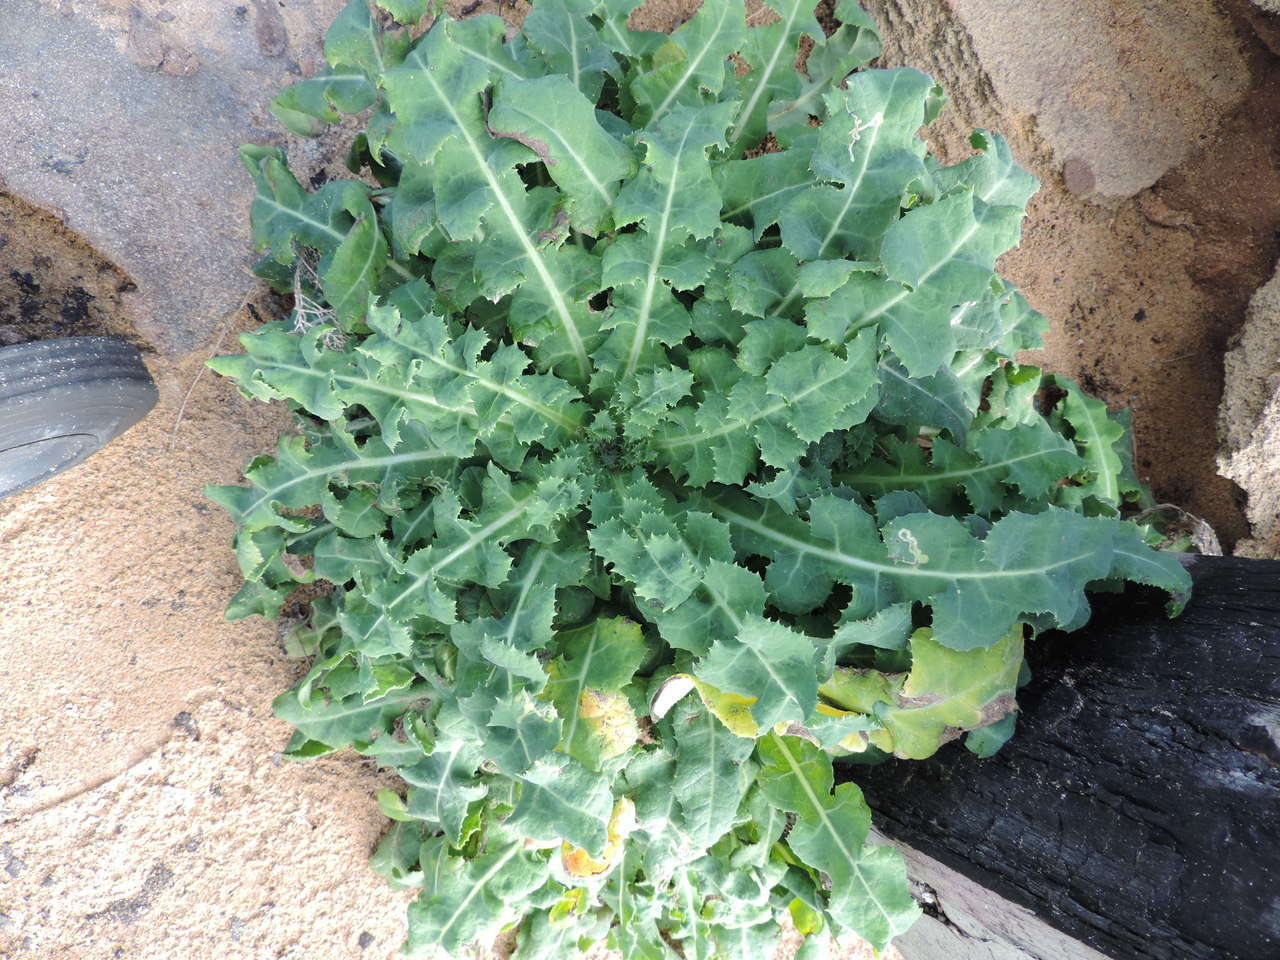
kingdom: Plantae
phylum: Tracheophyta
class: Magnoliopsida
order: Asterales
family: Asteraceae
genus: Sonchus
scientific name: Sonchus megalocarpus
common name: Dune thistle
